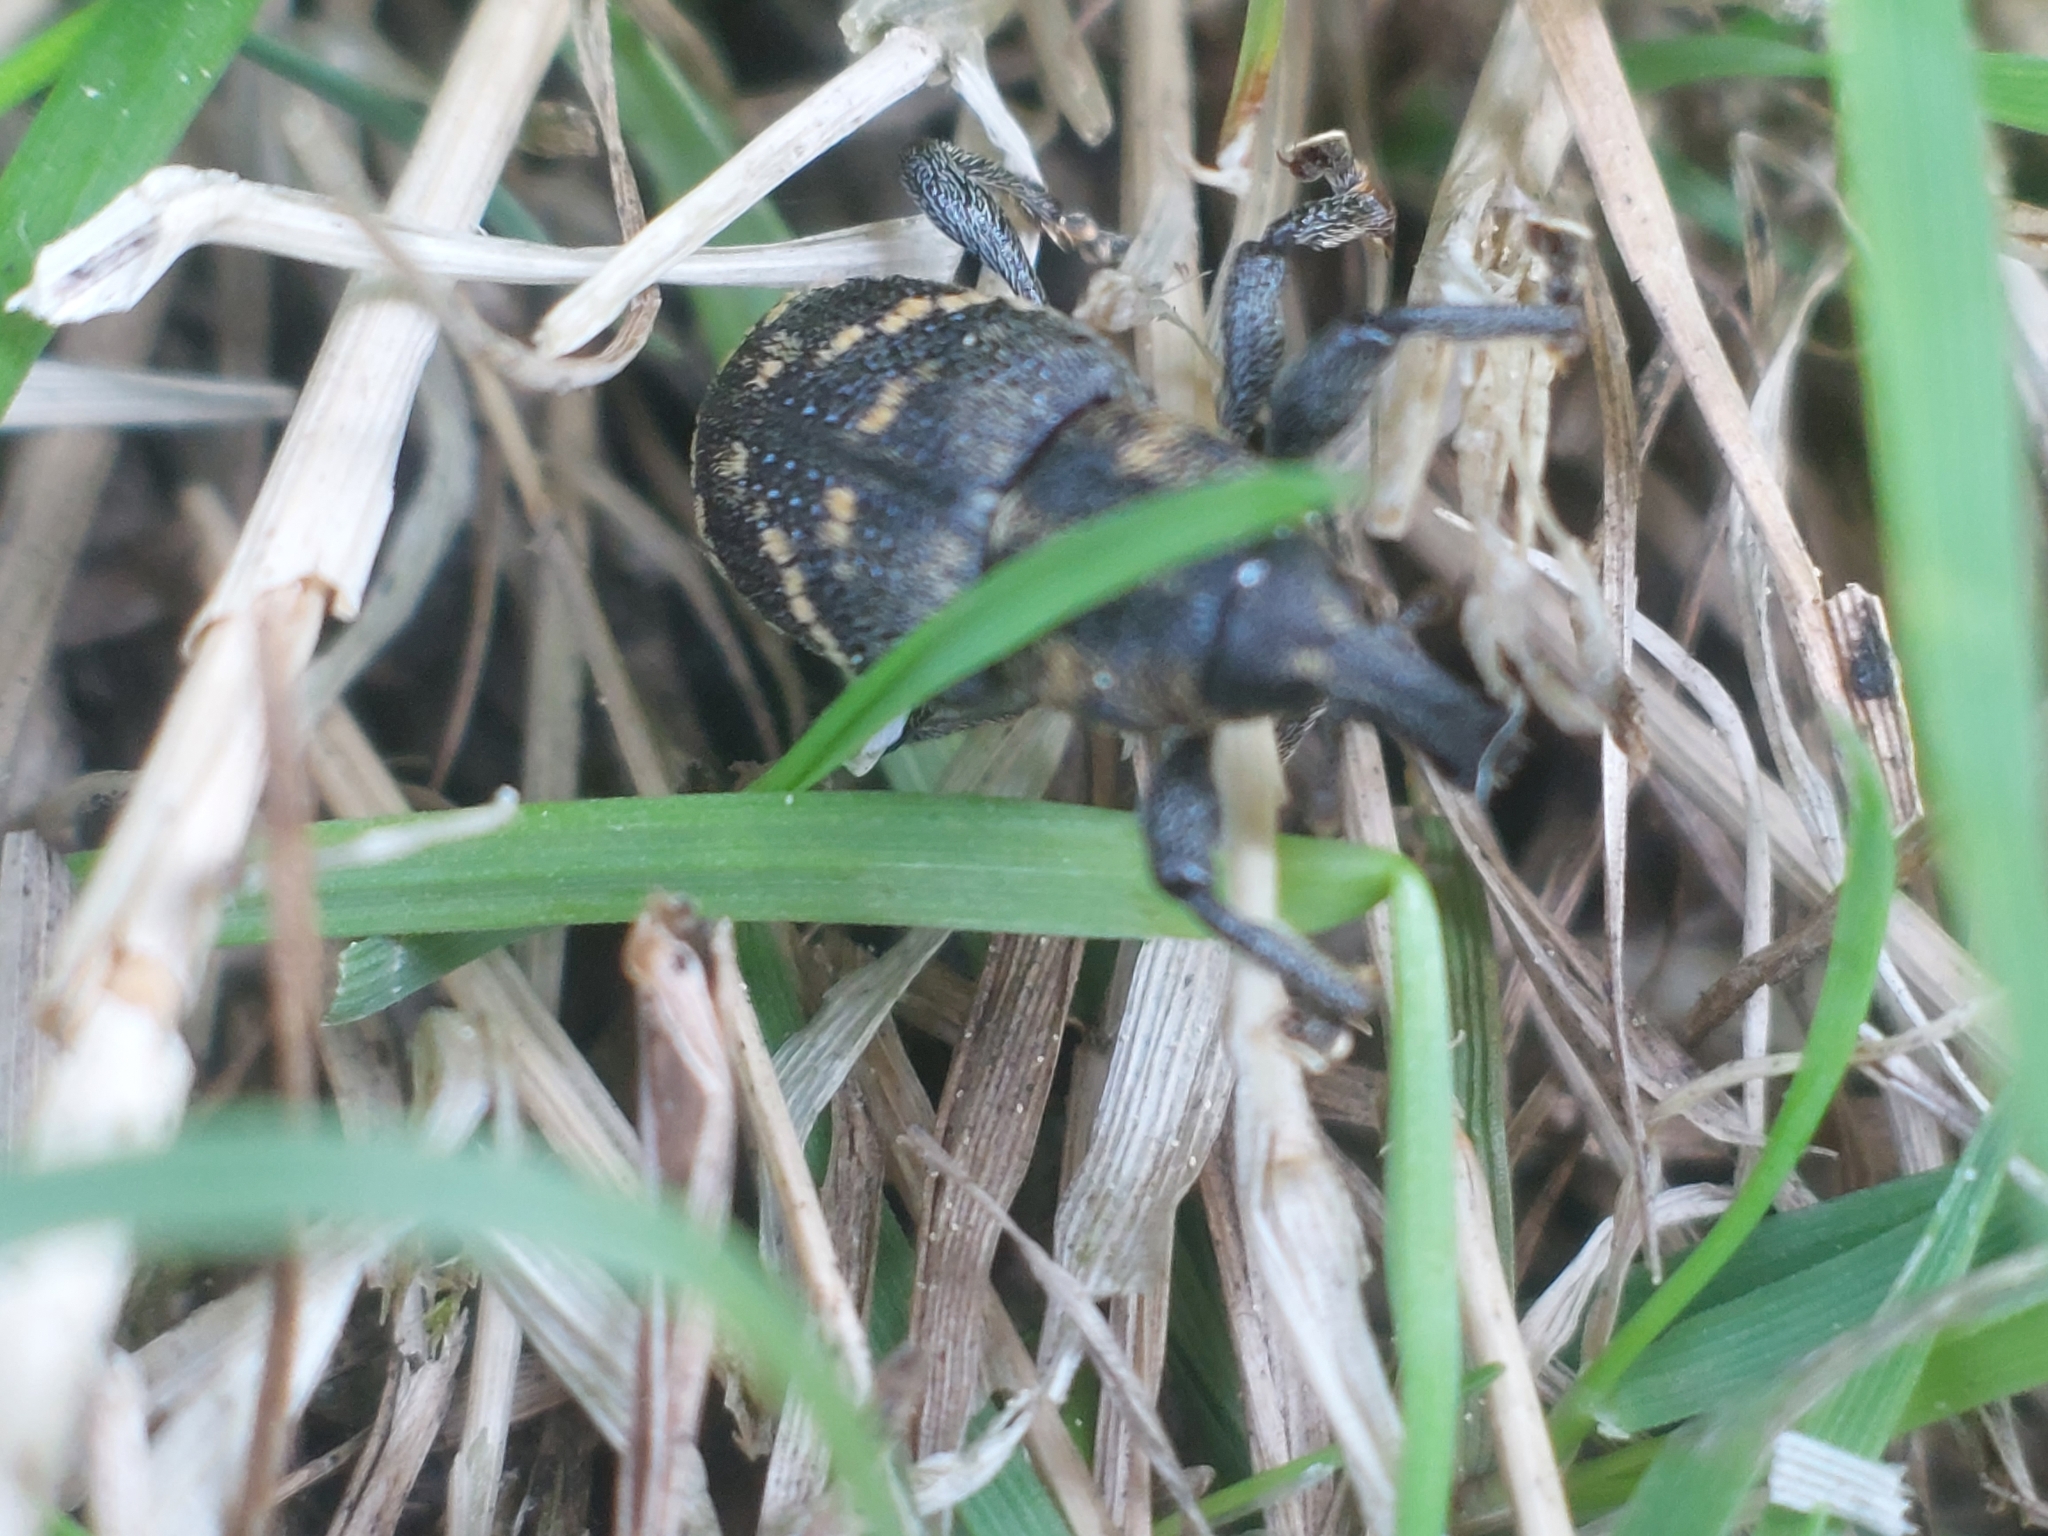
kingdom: Animalia
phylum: Arthropoda
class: Insecta
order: Coleoptera
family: Curculionidae
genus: Hylobius
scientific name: Hylobius abietis
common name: Large pine weevil
